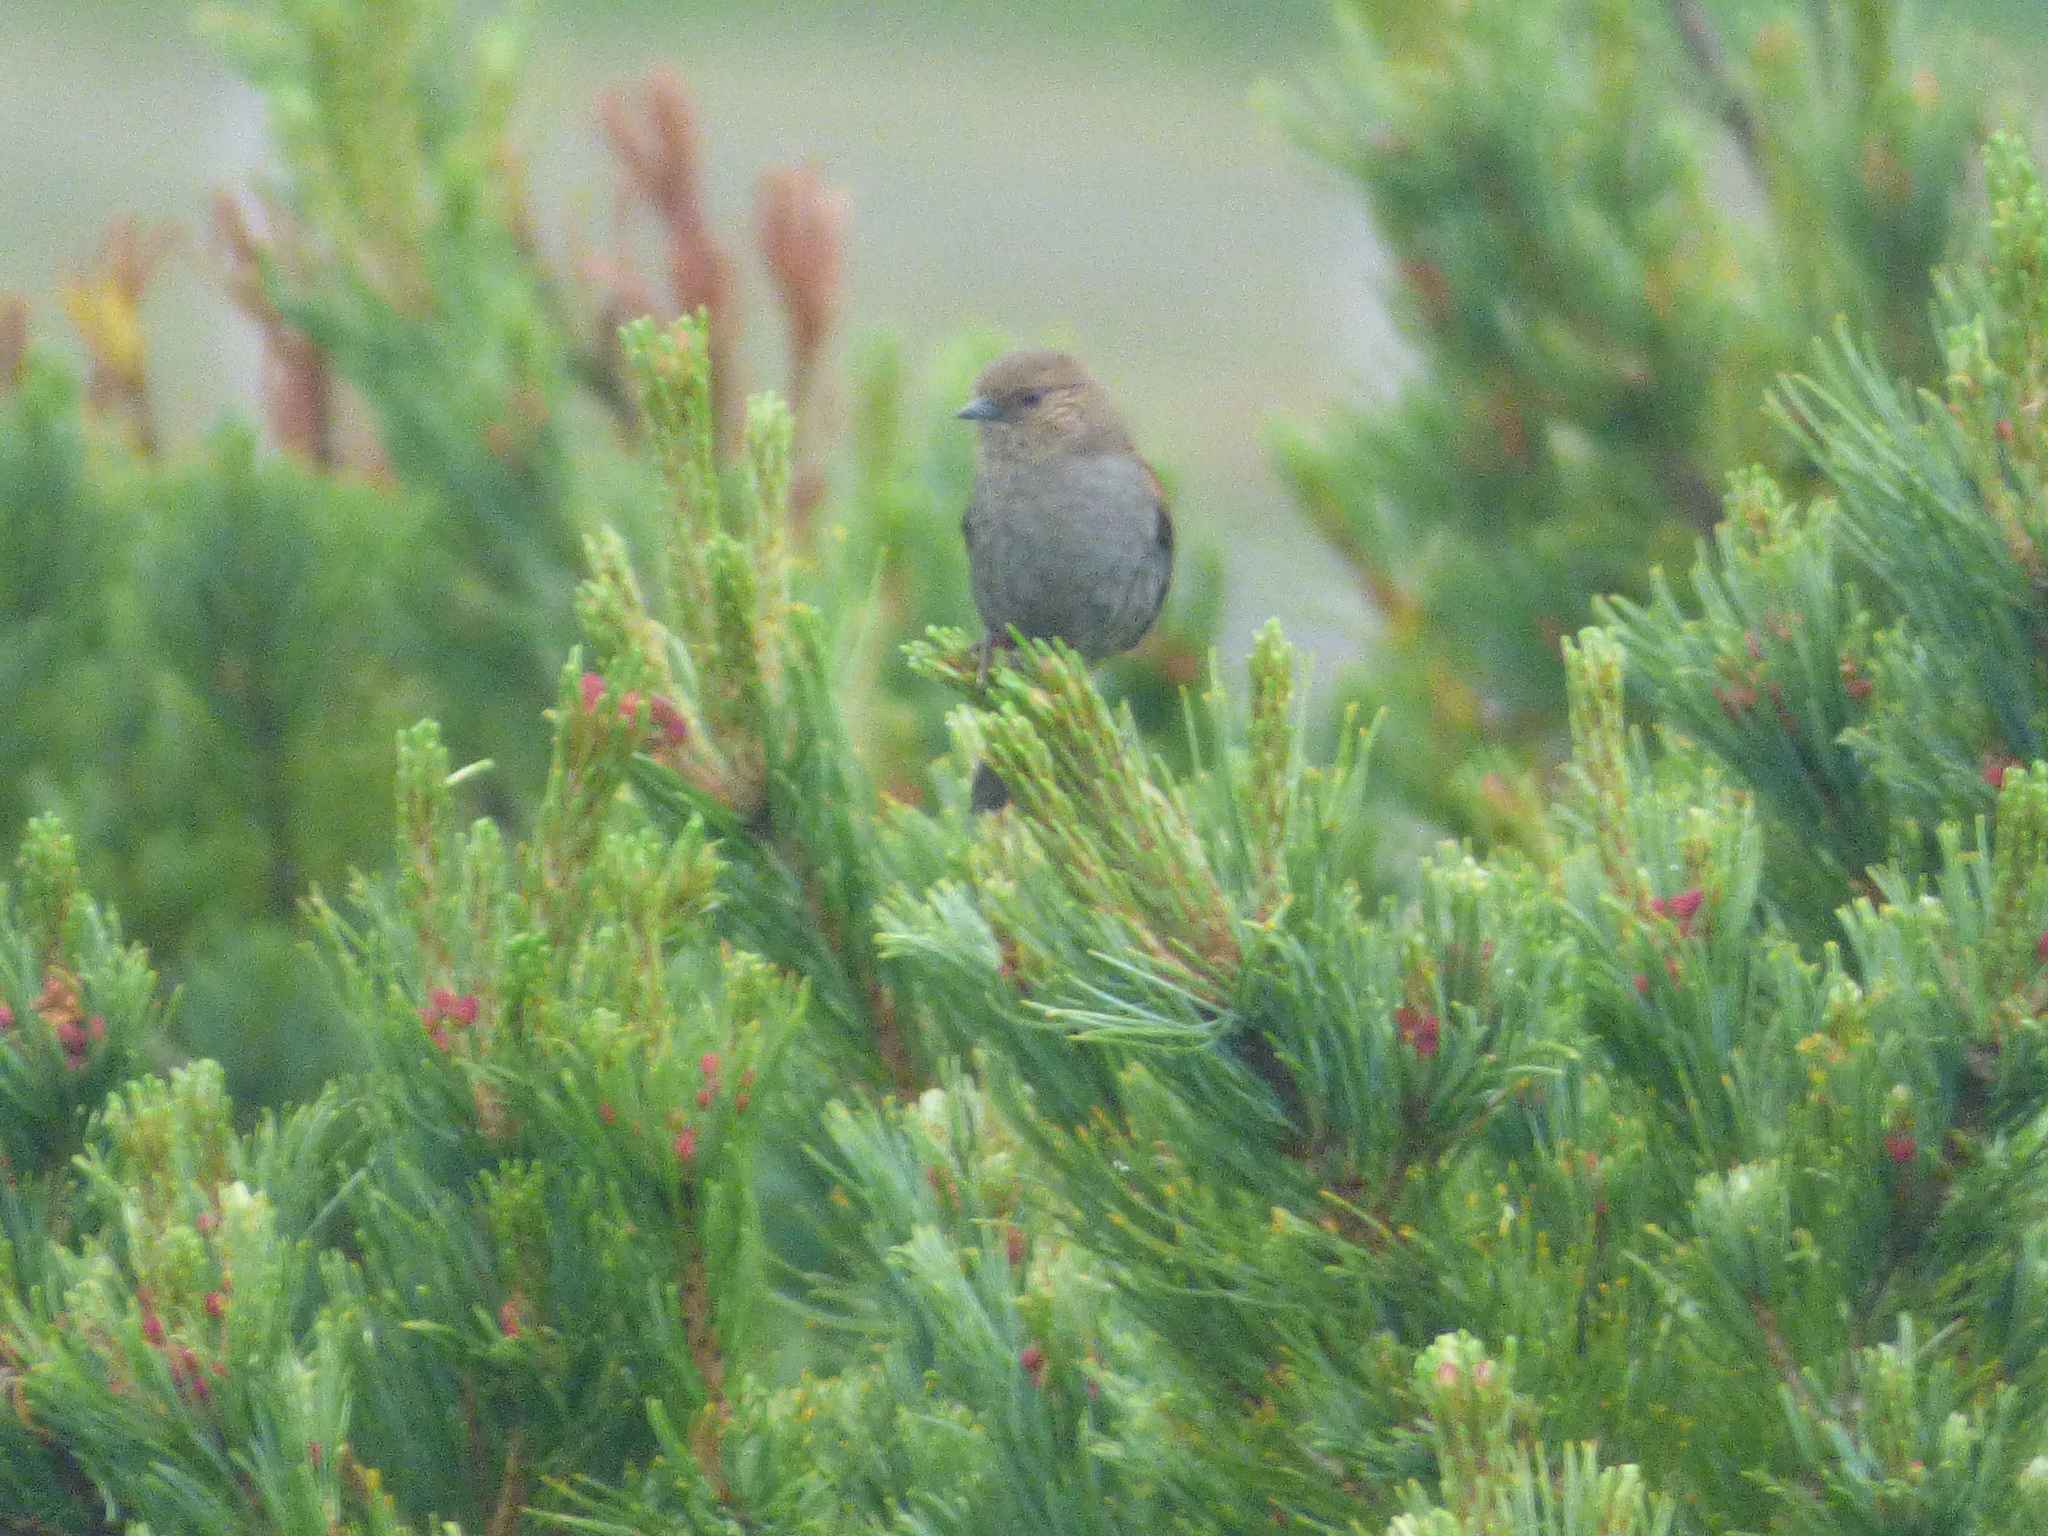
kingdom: Animalia
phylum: Chordata
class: Aves
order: Passeriformes
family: Prunellidae
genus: Prunella
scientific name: Prunella rubida
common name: Japanese accentor
